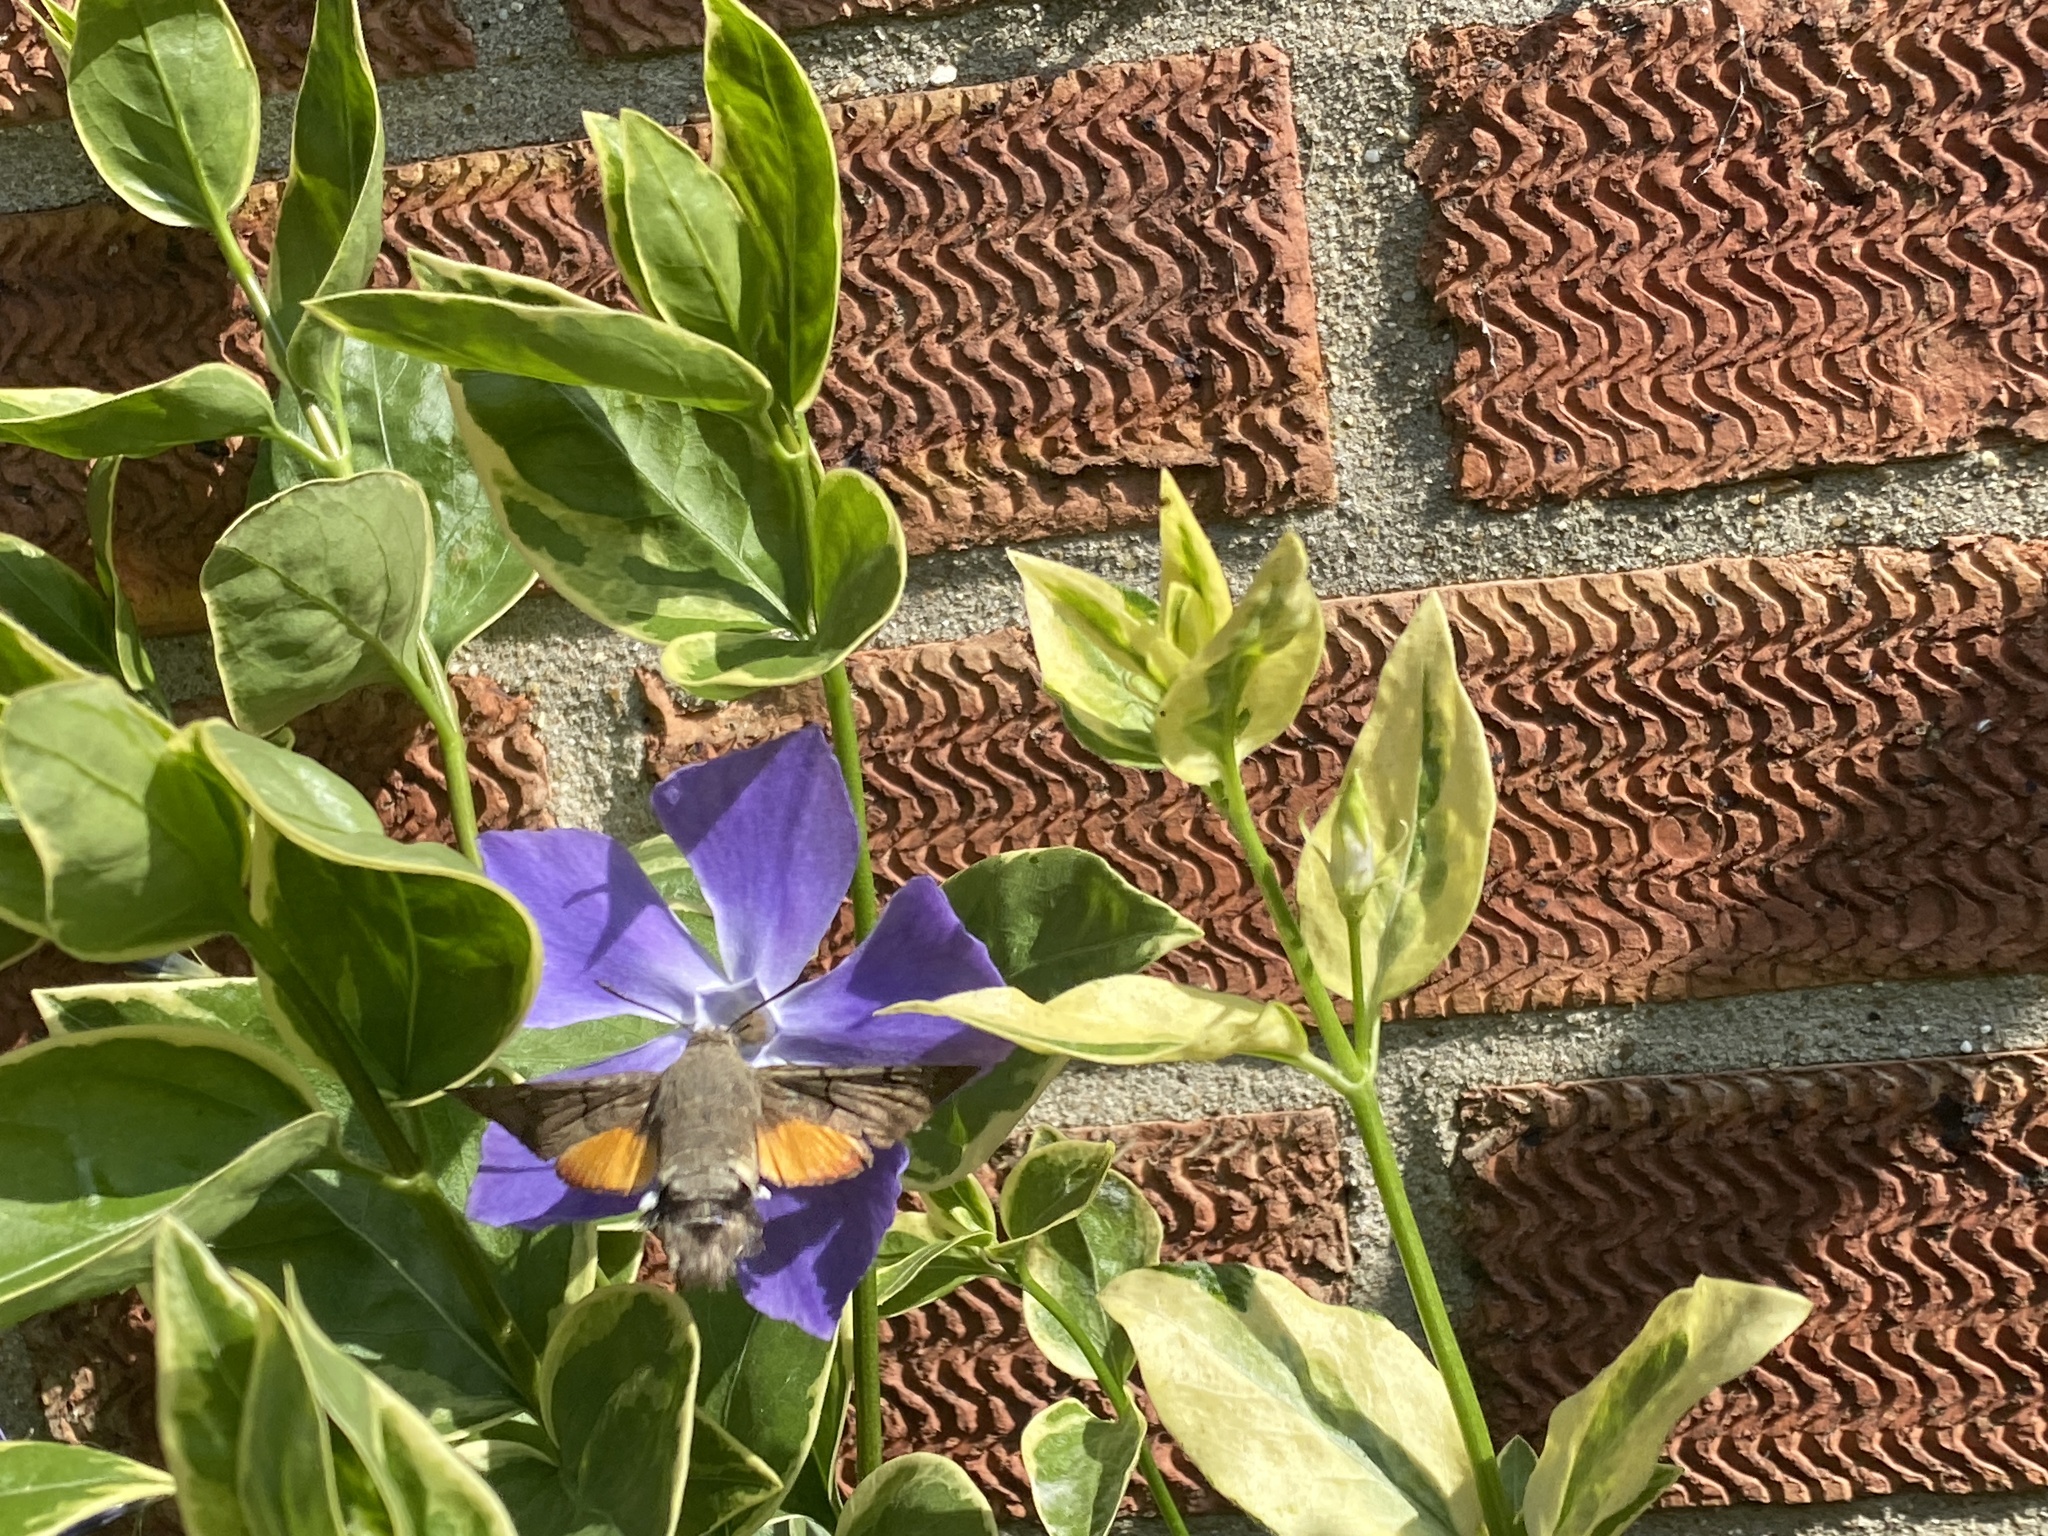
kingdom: Animalia
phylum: Arthropoda
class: Insecta
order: Lepidoptera
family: Sphingidae
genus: Macroglossum
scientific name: Macroglossum stellatarum
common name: Humming-bird hawk-moth
